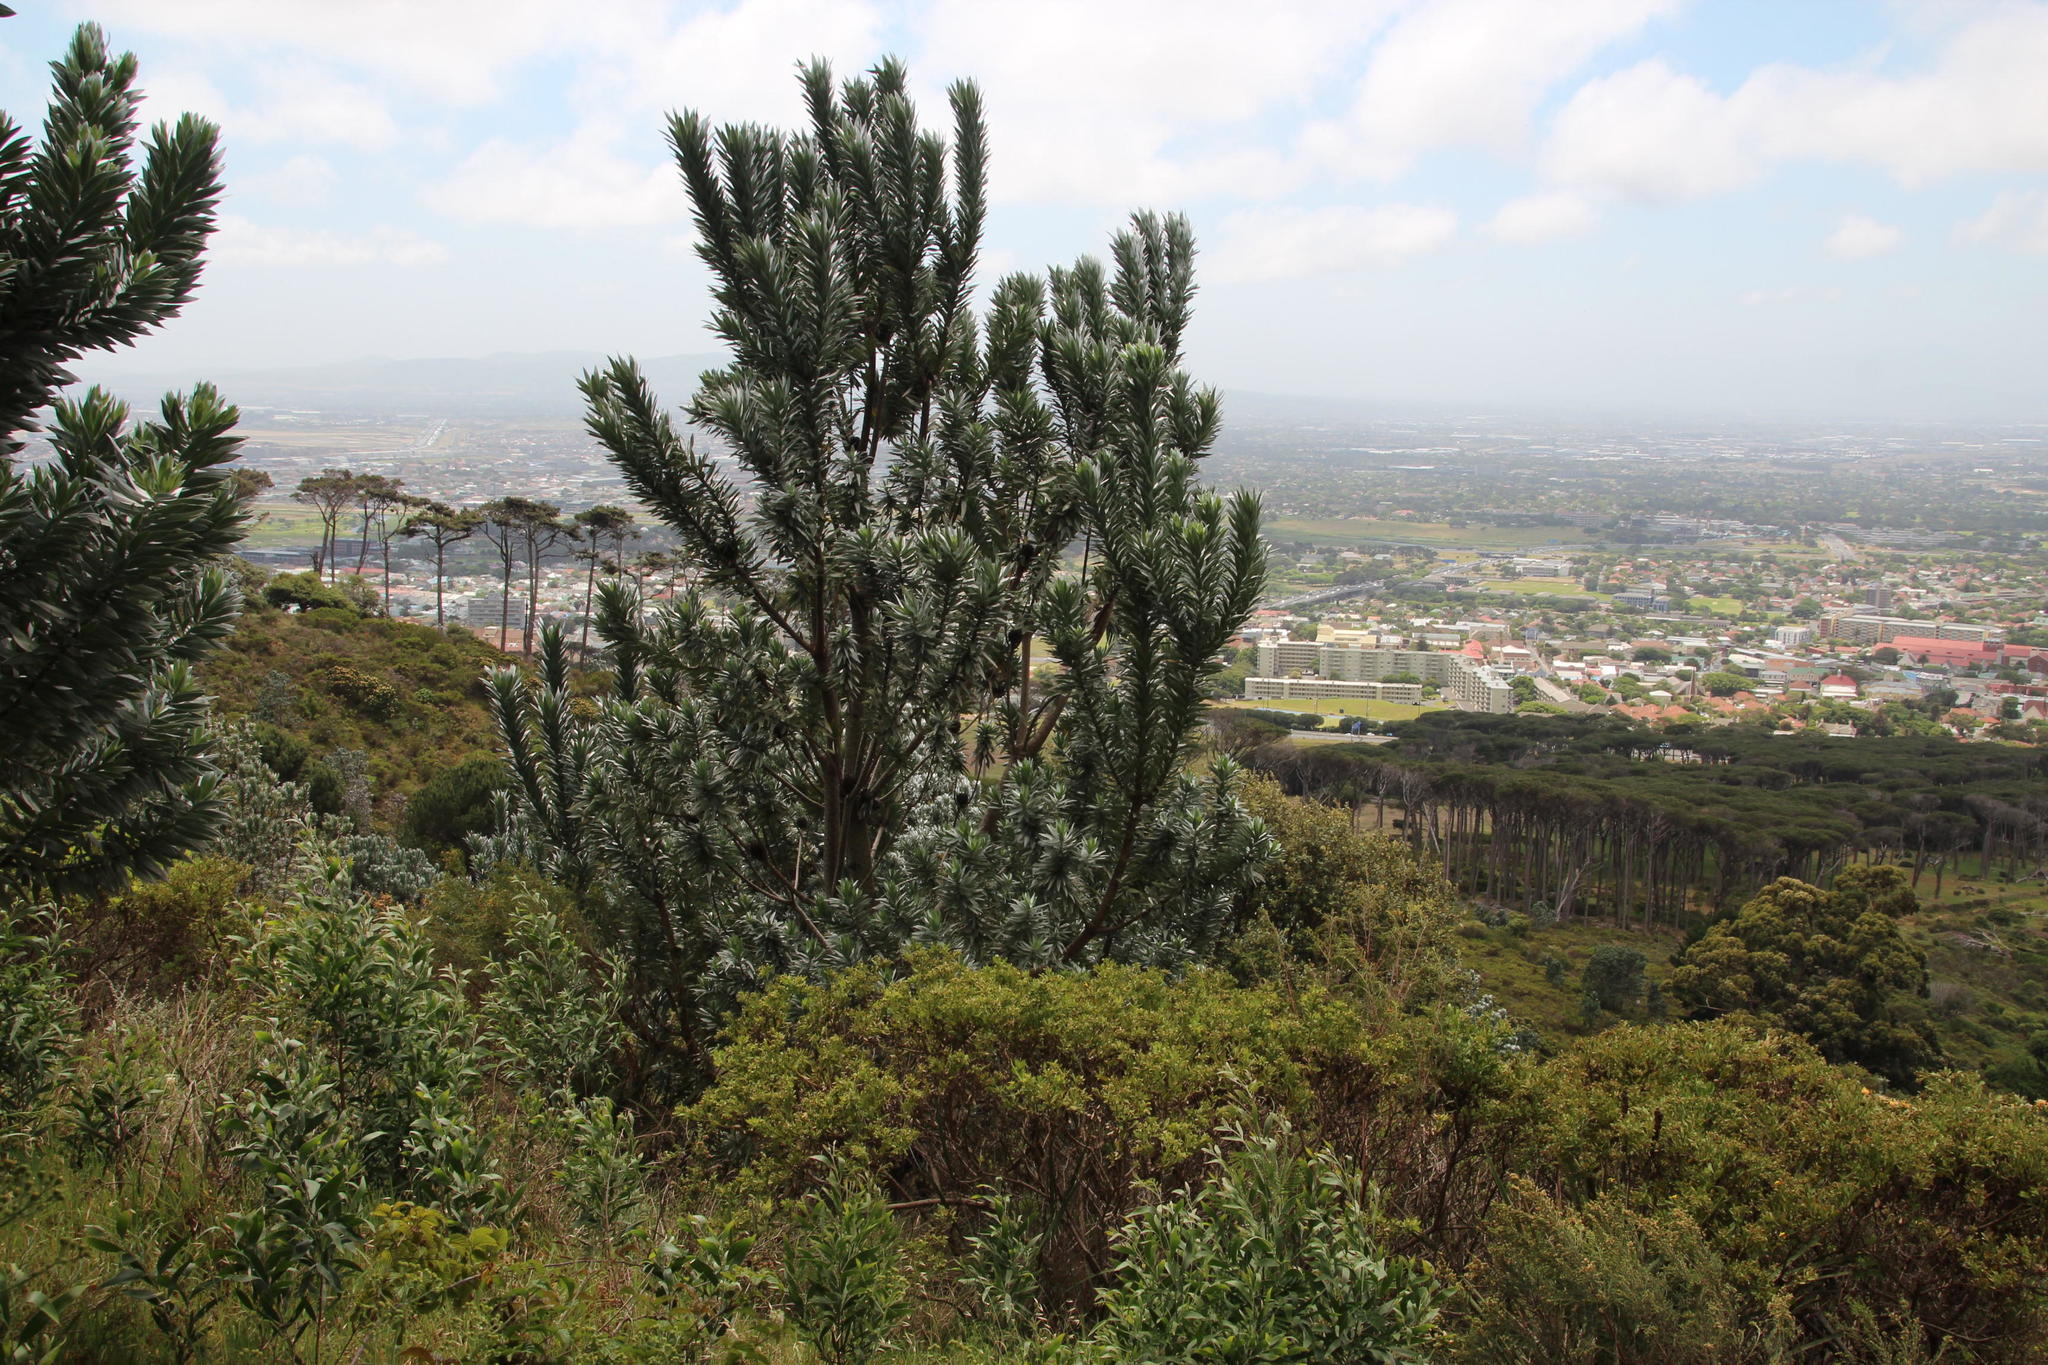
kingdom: Plantae
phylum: Tracheophyta
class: Magnoliopsida
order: Proteales
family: Proteaceae
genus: Leucadendron
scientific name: Leucadendron argenteum
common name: Cape silver tree
